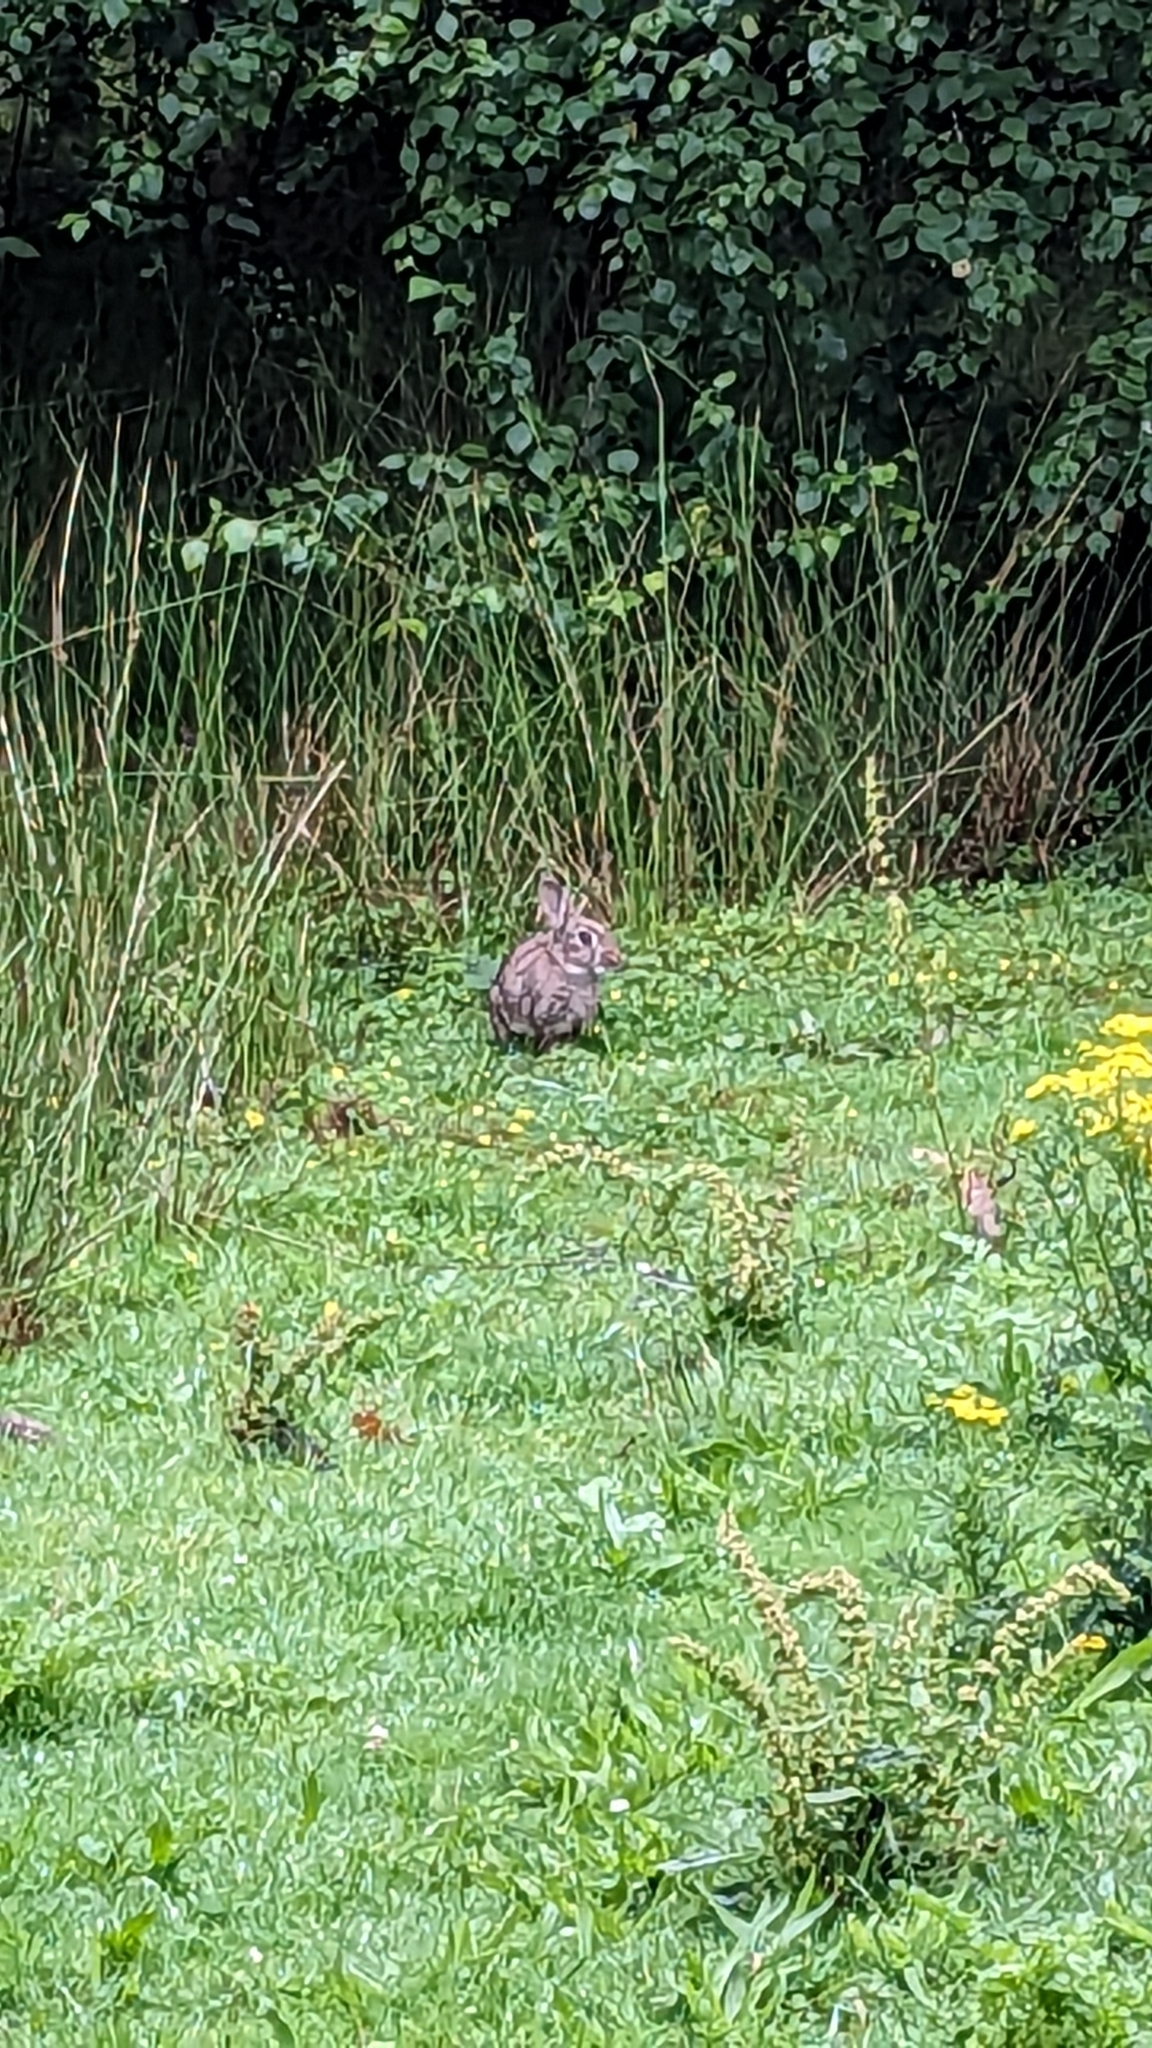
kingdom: Animalia
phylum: Chordata
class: Mammalia
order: Lagomorpha
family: Leporidae
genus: Oryctolagus
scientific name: Oryctolagus cuniculus
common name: European rabbit
